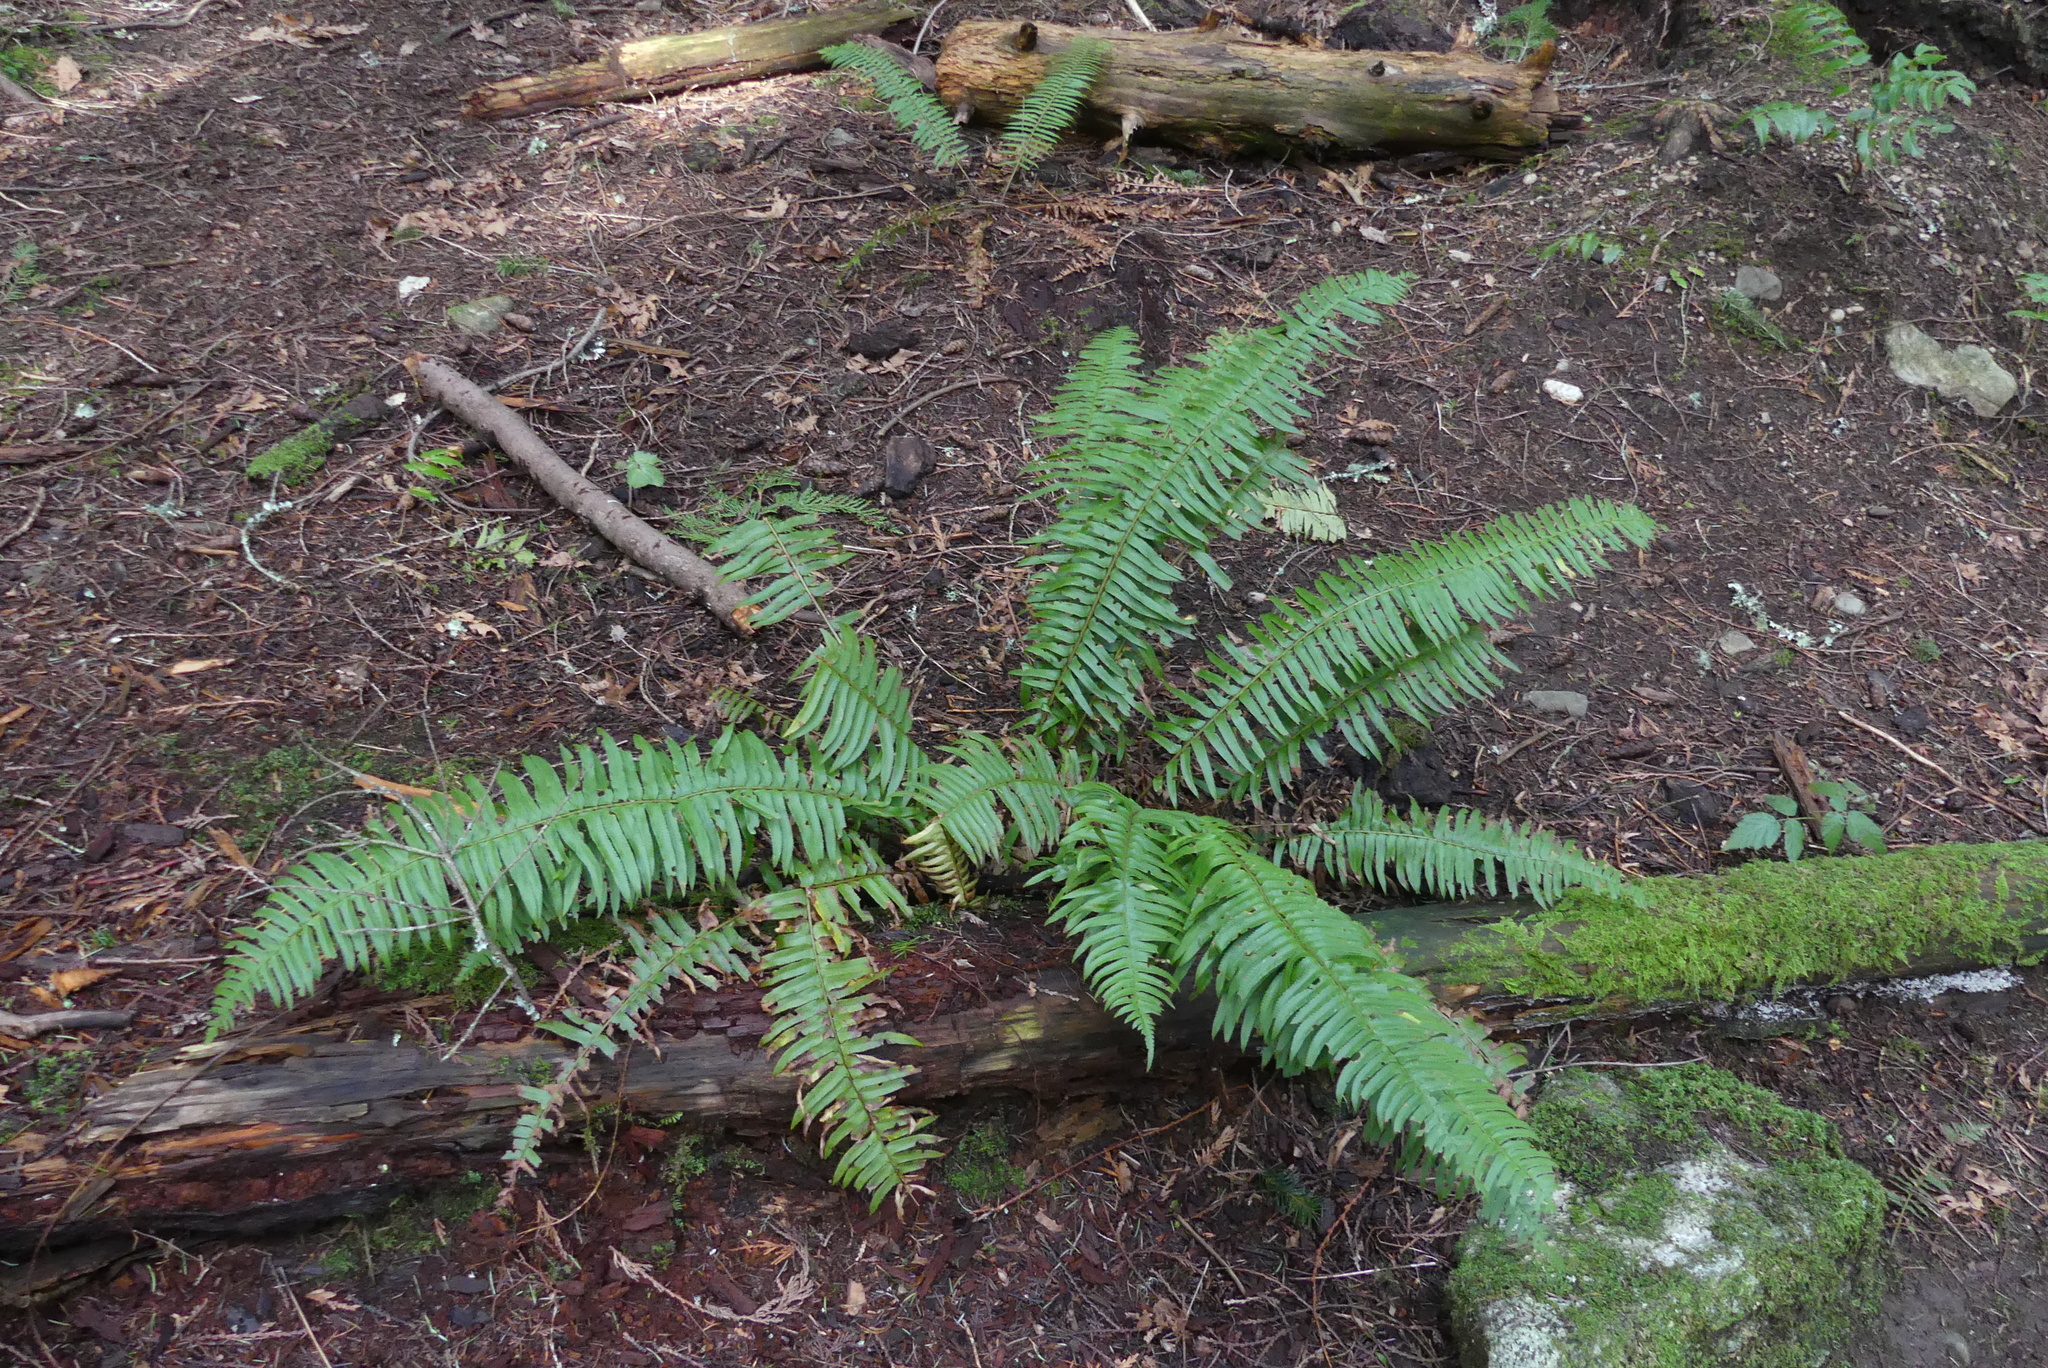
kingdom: Plantae
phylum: Tracheophyta
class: Polypodiopsida
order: Polypodiales
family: Dryopteridaceae
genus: Polystichum
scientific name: Polystichum munitum
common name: Western sword-fern
